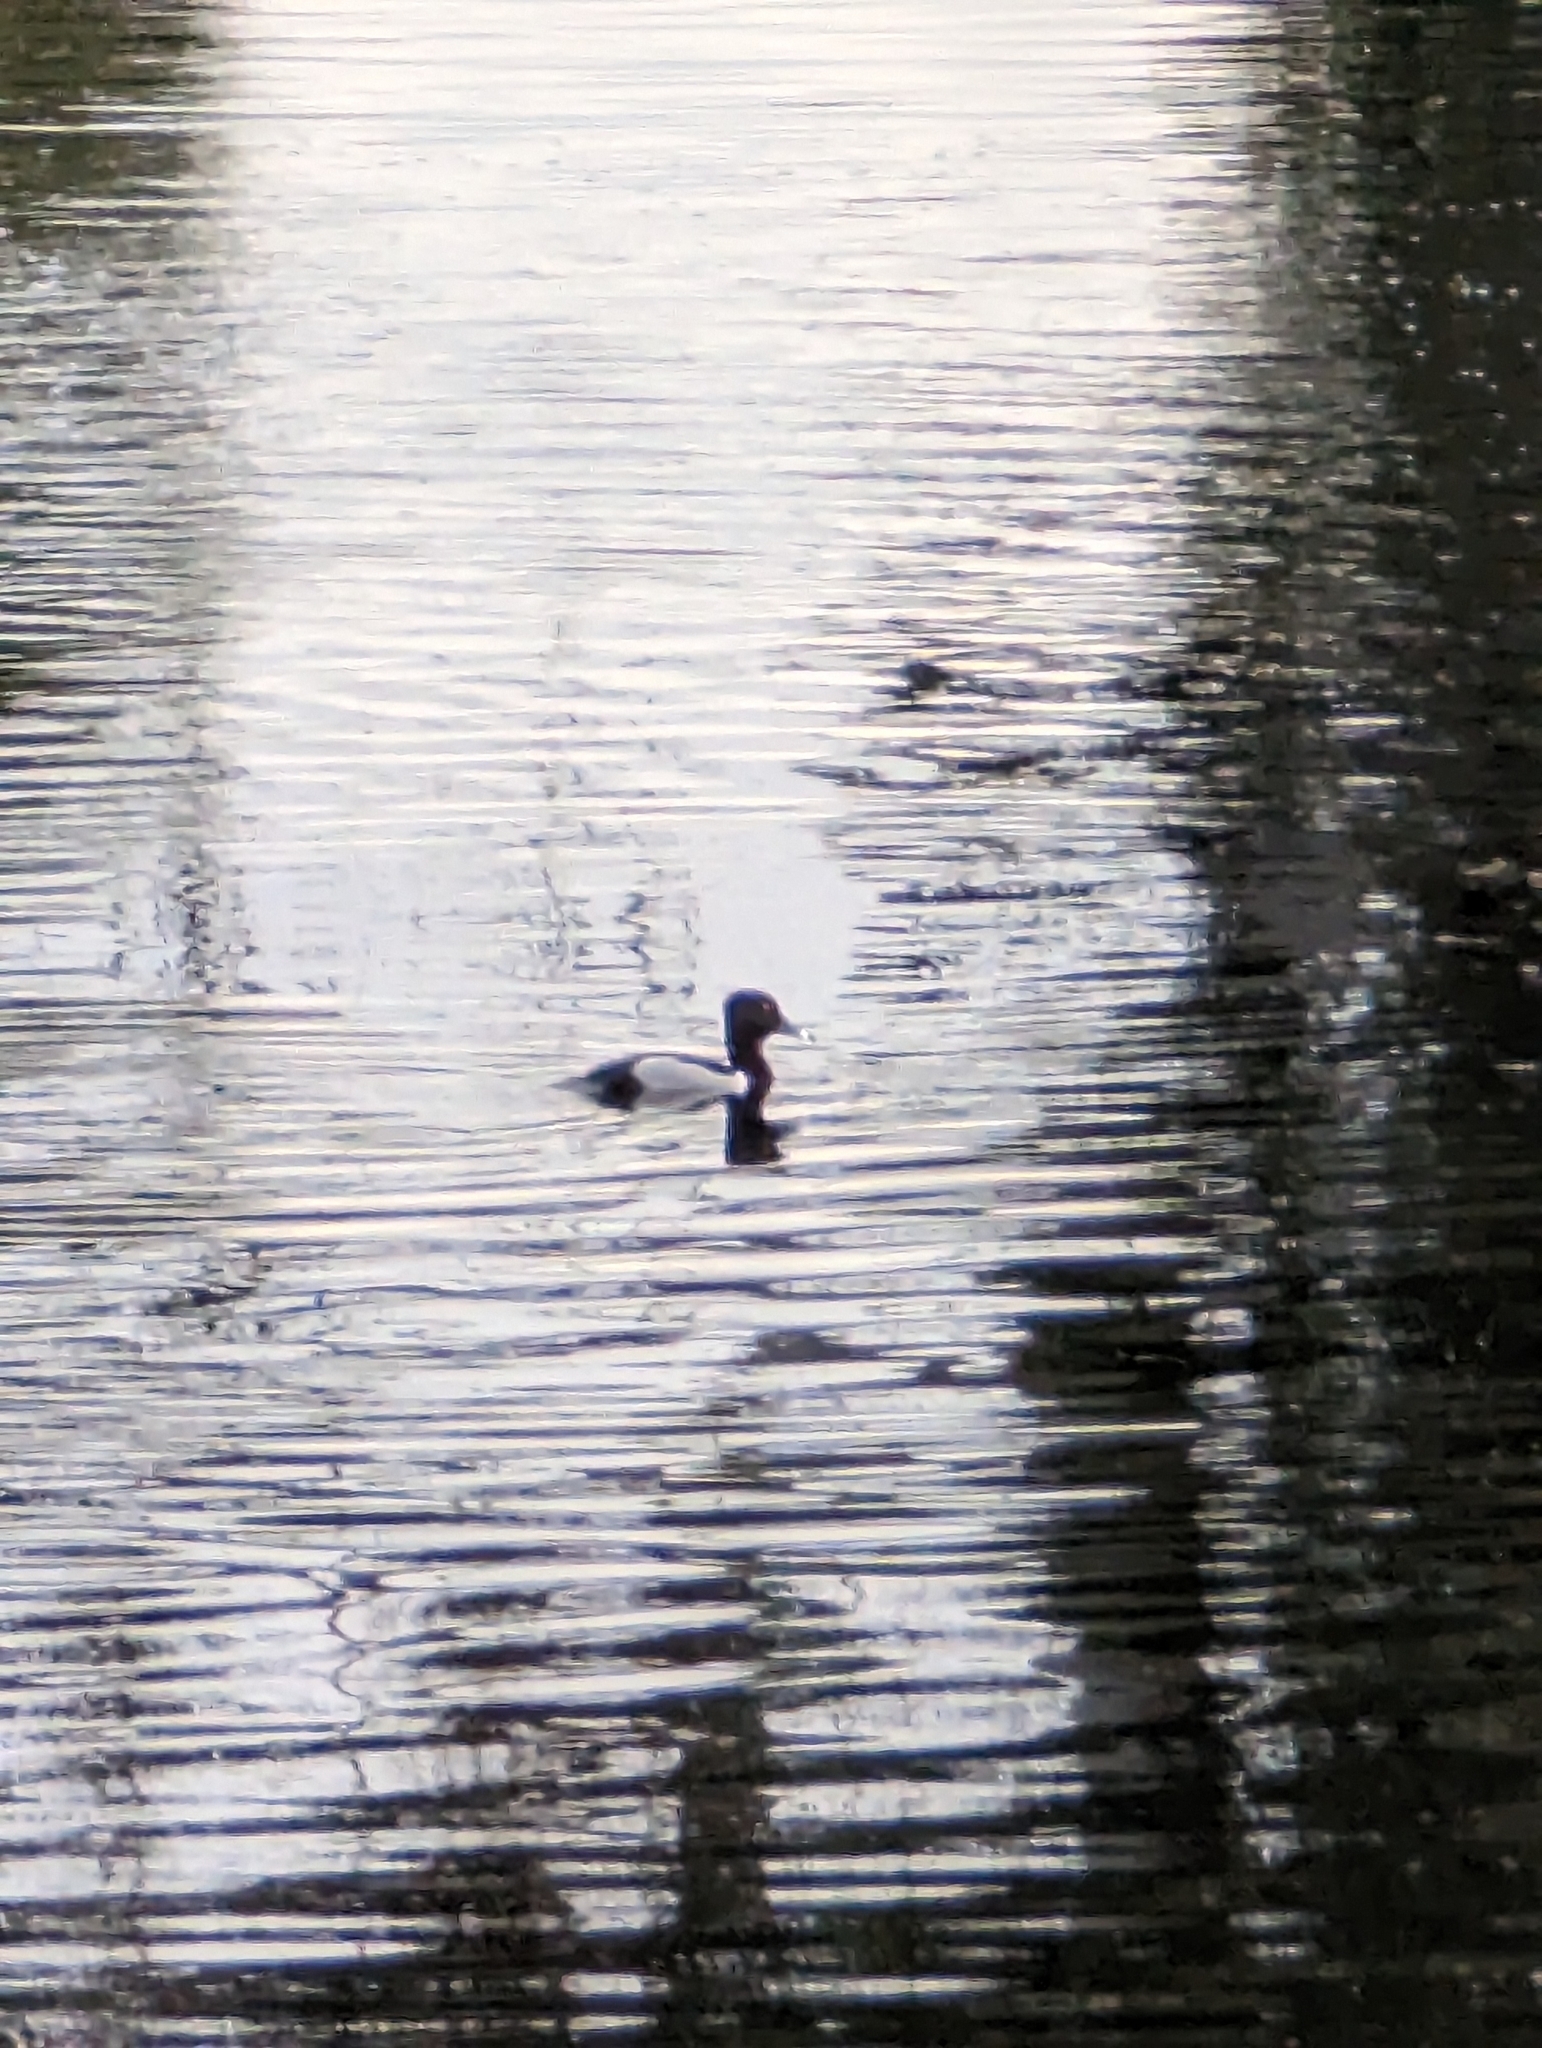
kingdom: Animalia
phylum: Chordata
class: Aves
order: Anseriformes
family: Anatidae
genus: Aythya
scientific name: Aythya collaris
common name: Ring-necked duck
